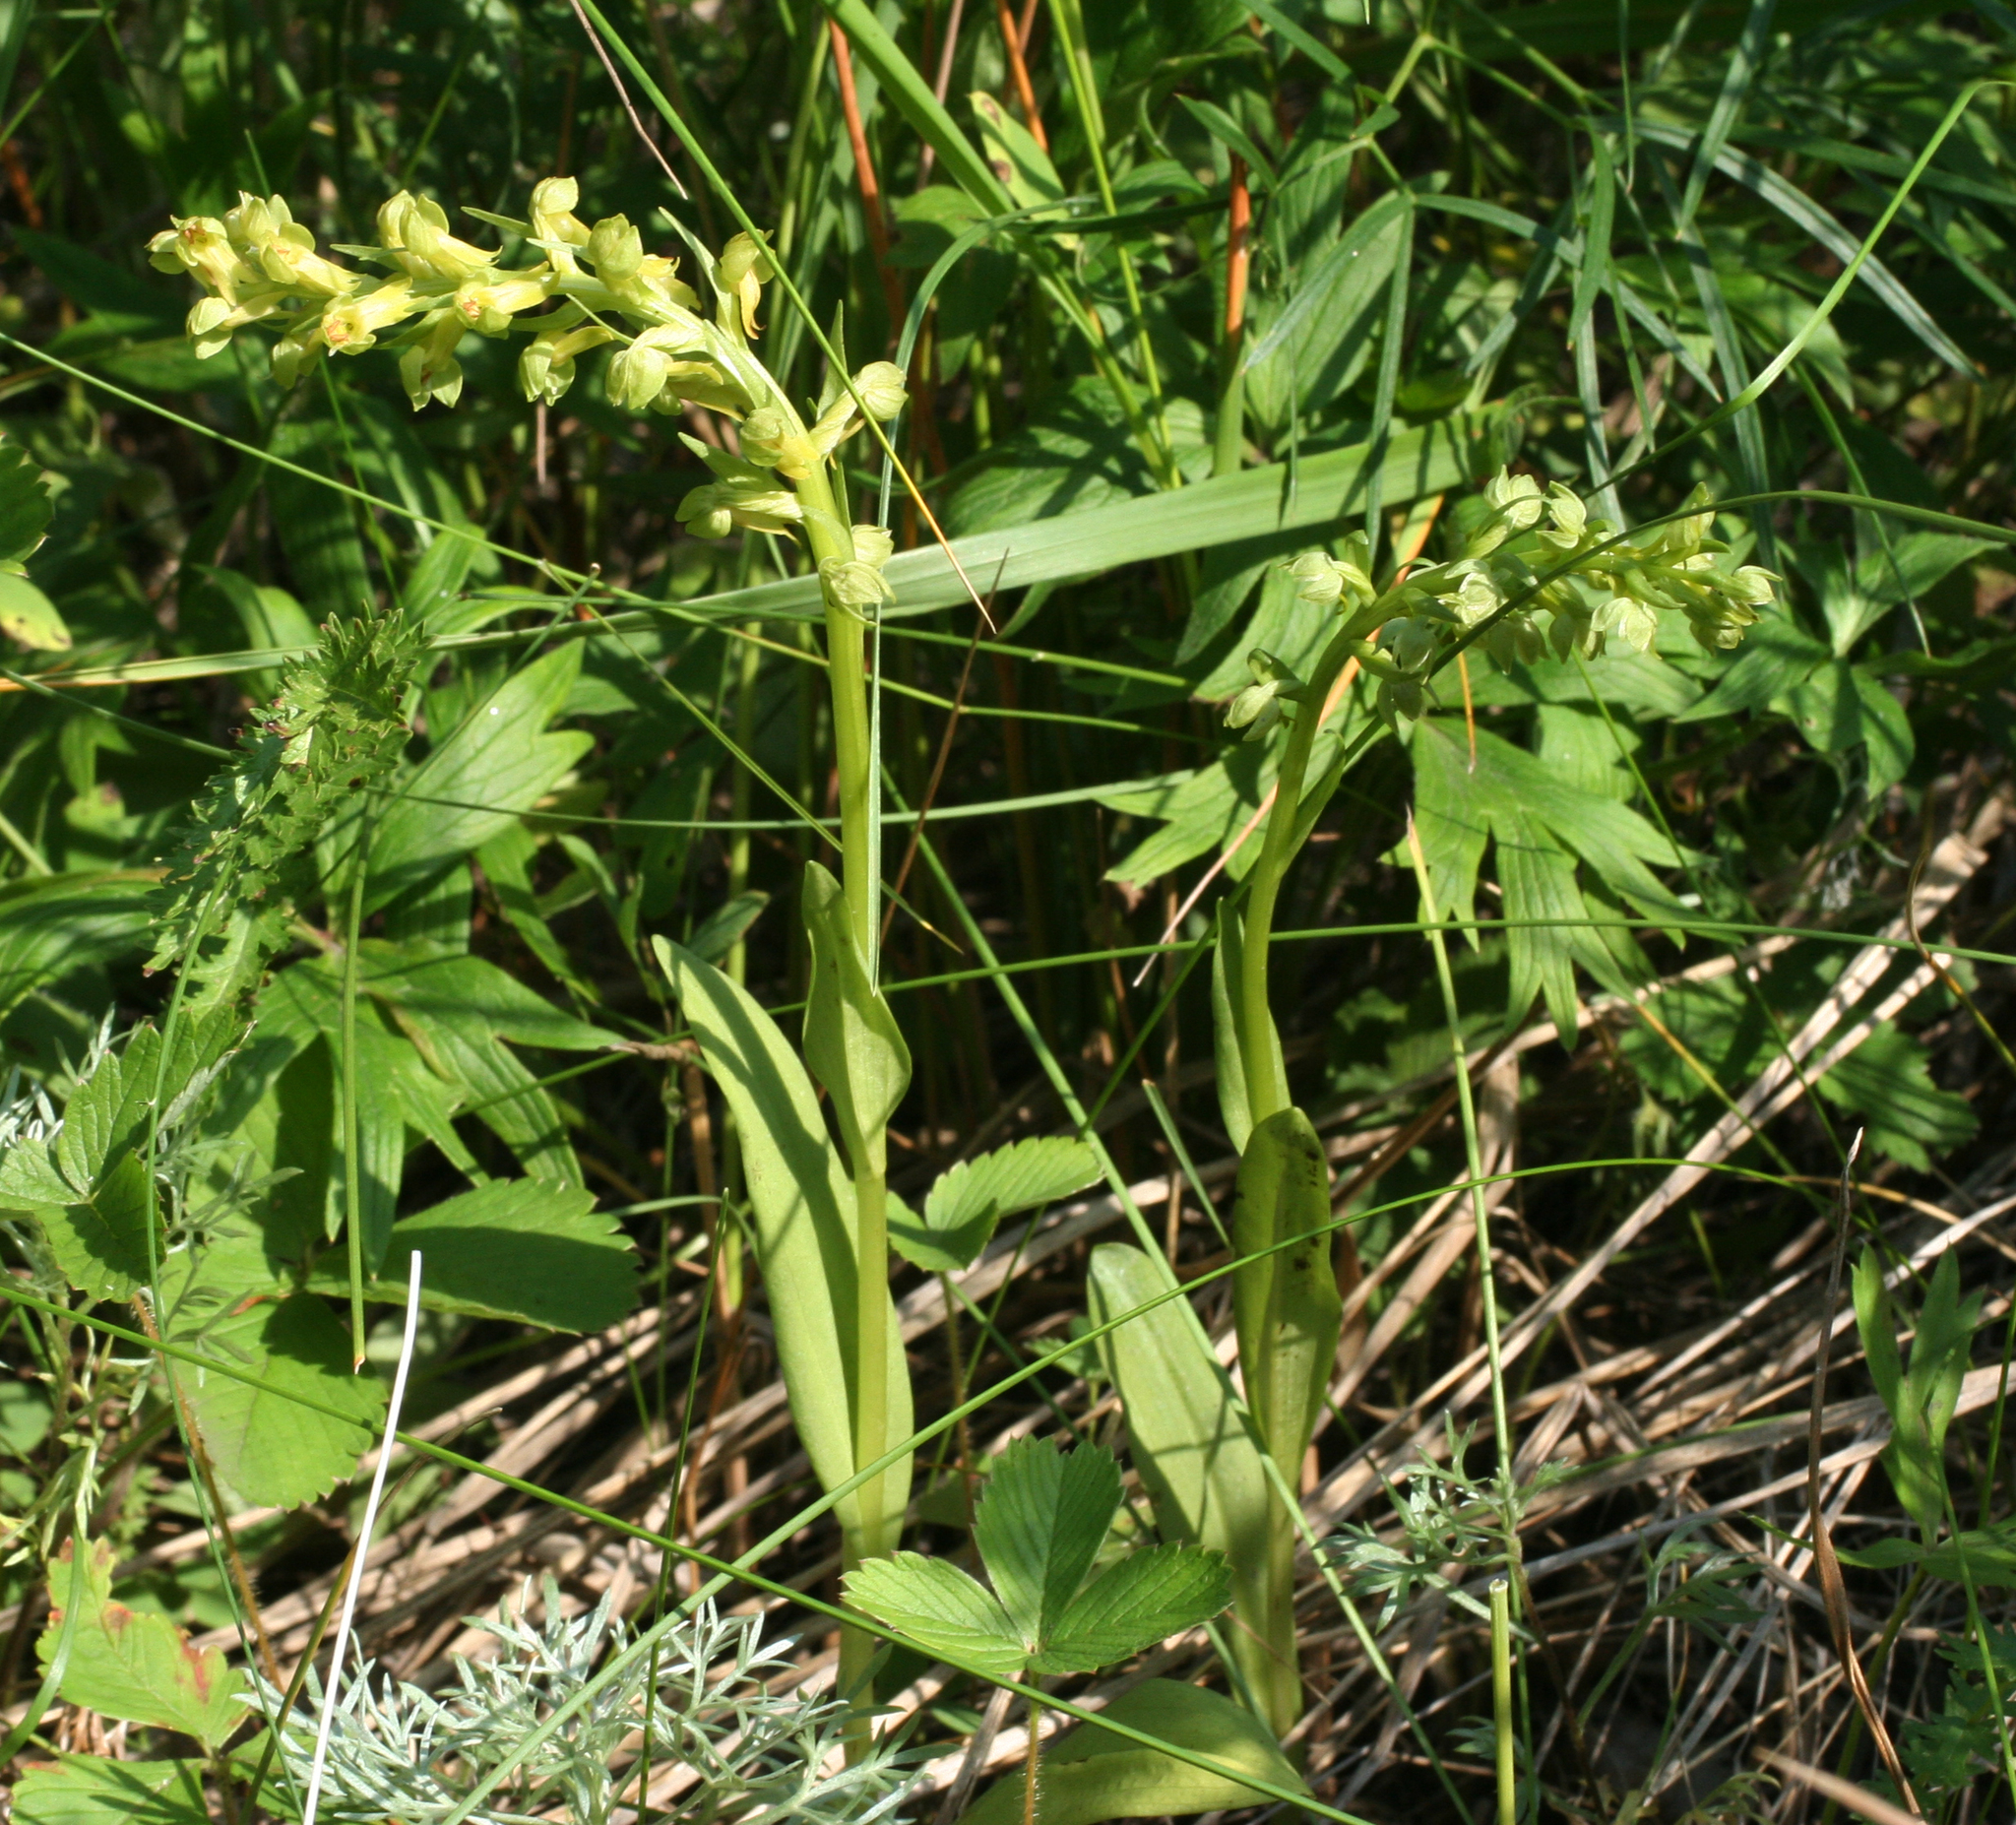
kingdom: Plantae
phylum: Tracheophyta
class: Liliopsida
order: Asparagales
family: Orchidaceae
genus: Dactylorhiza
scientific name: Dactylorhiza viridis
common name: Longbract frog orchid
